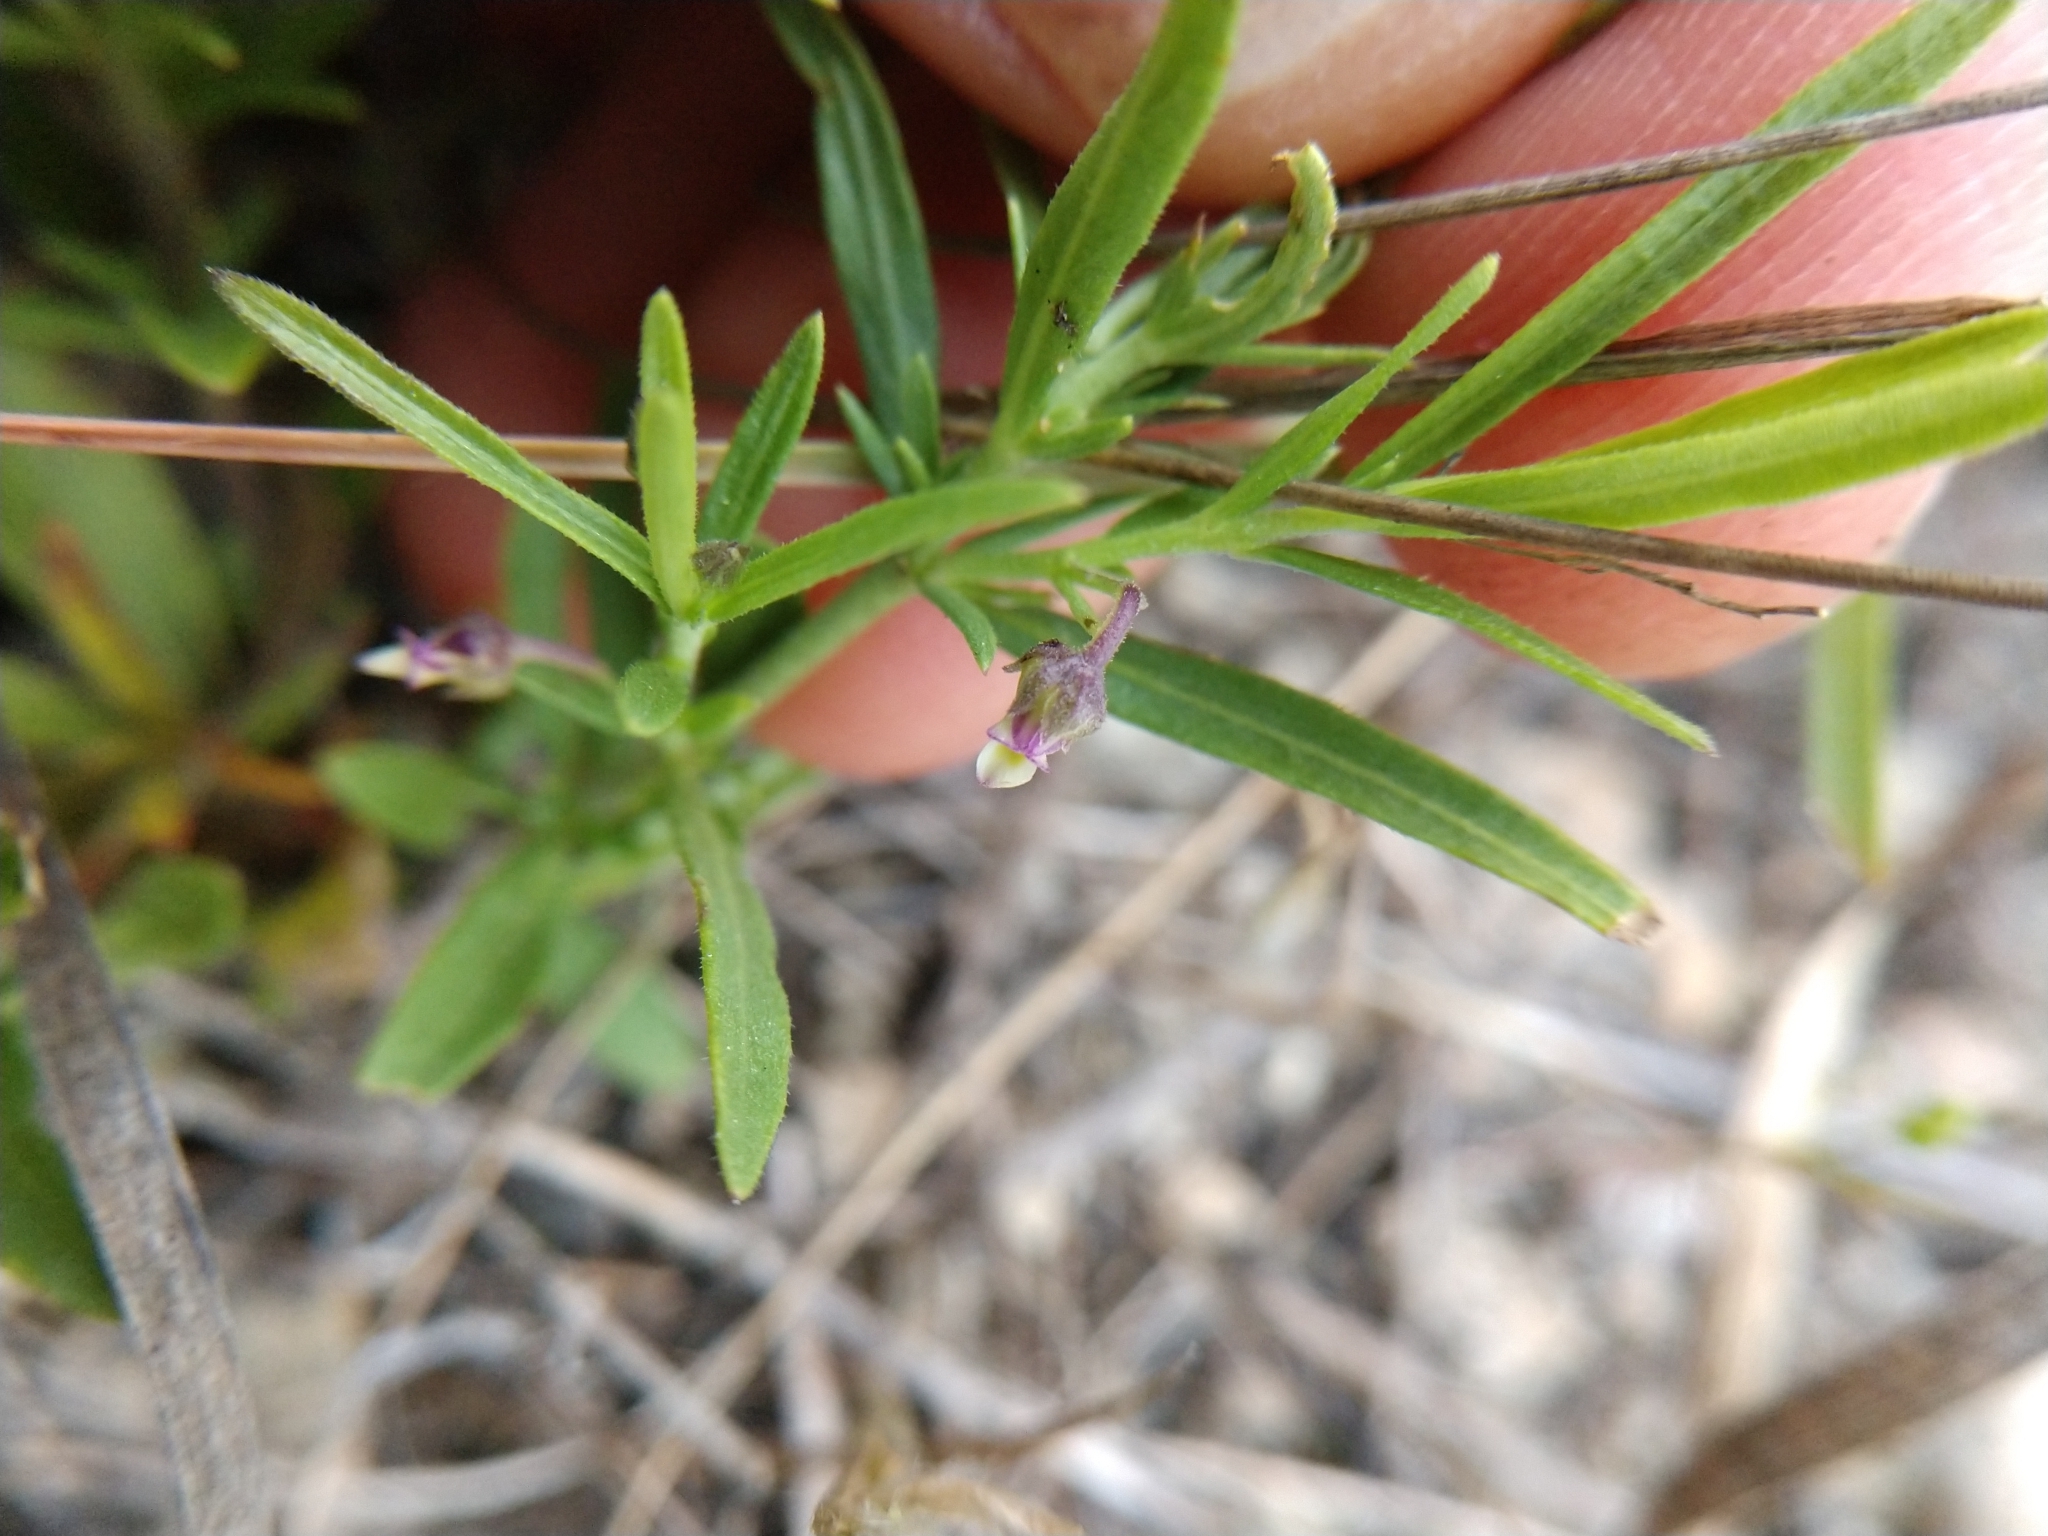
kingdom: Plantae
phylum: Tracheophyta
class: Magnoliopsida
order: Malpighiales
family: Violaceae
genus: Pombalia
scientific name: Pombalia verticillata
